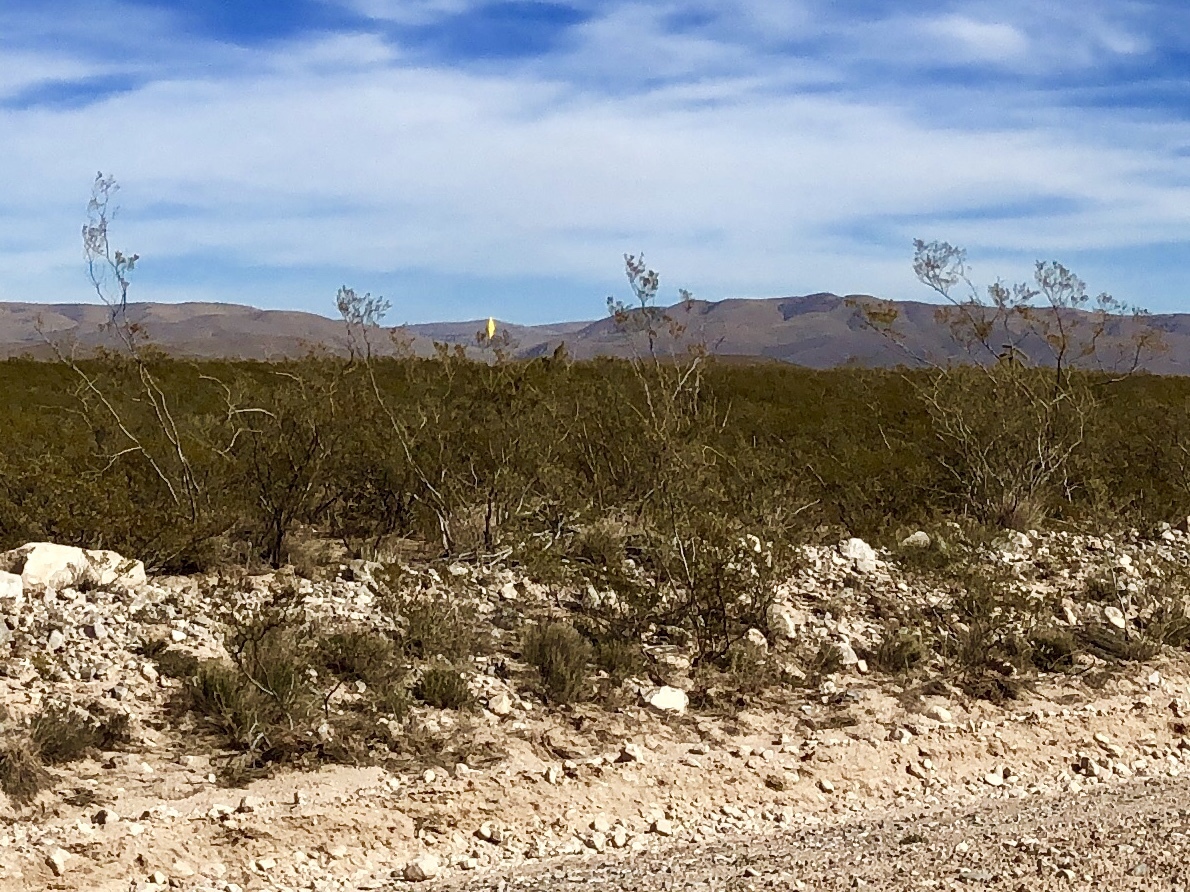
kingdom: Plantae
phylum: Tracheophyta
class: Magnoliopsida
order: Zygophyllales
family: Zygophyllaceae
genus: Larrea
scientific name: Larrea tridentata
